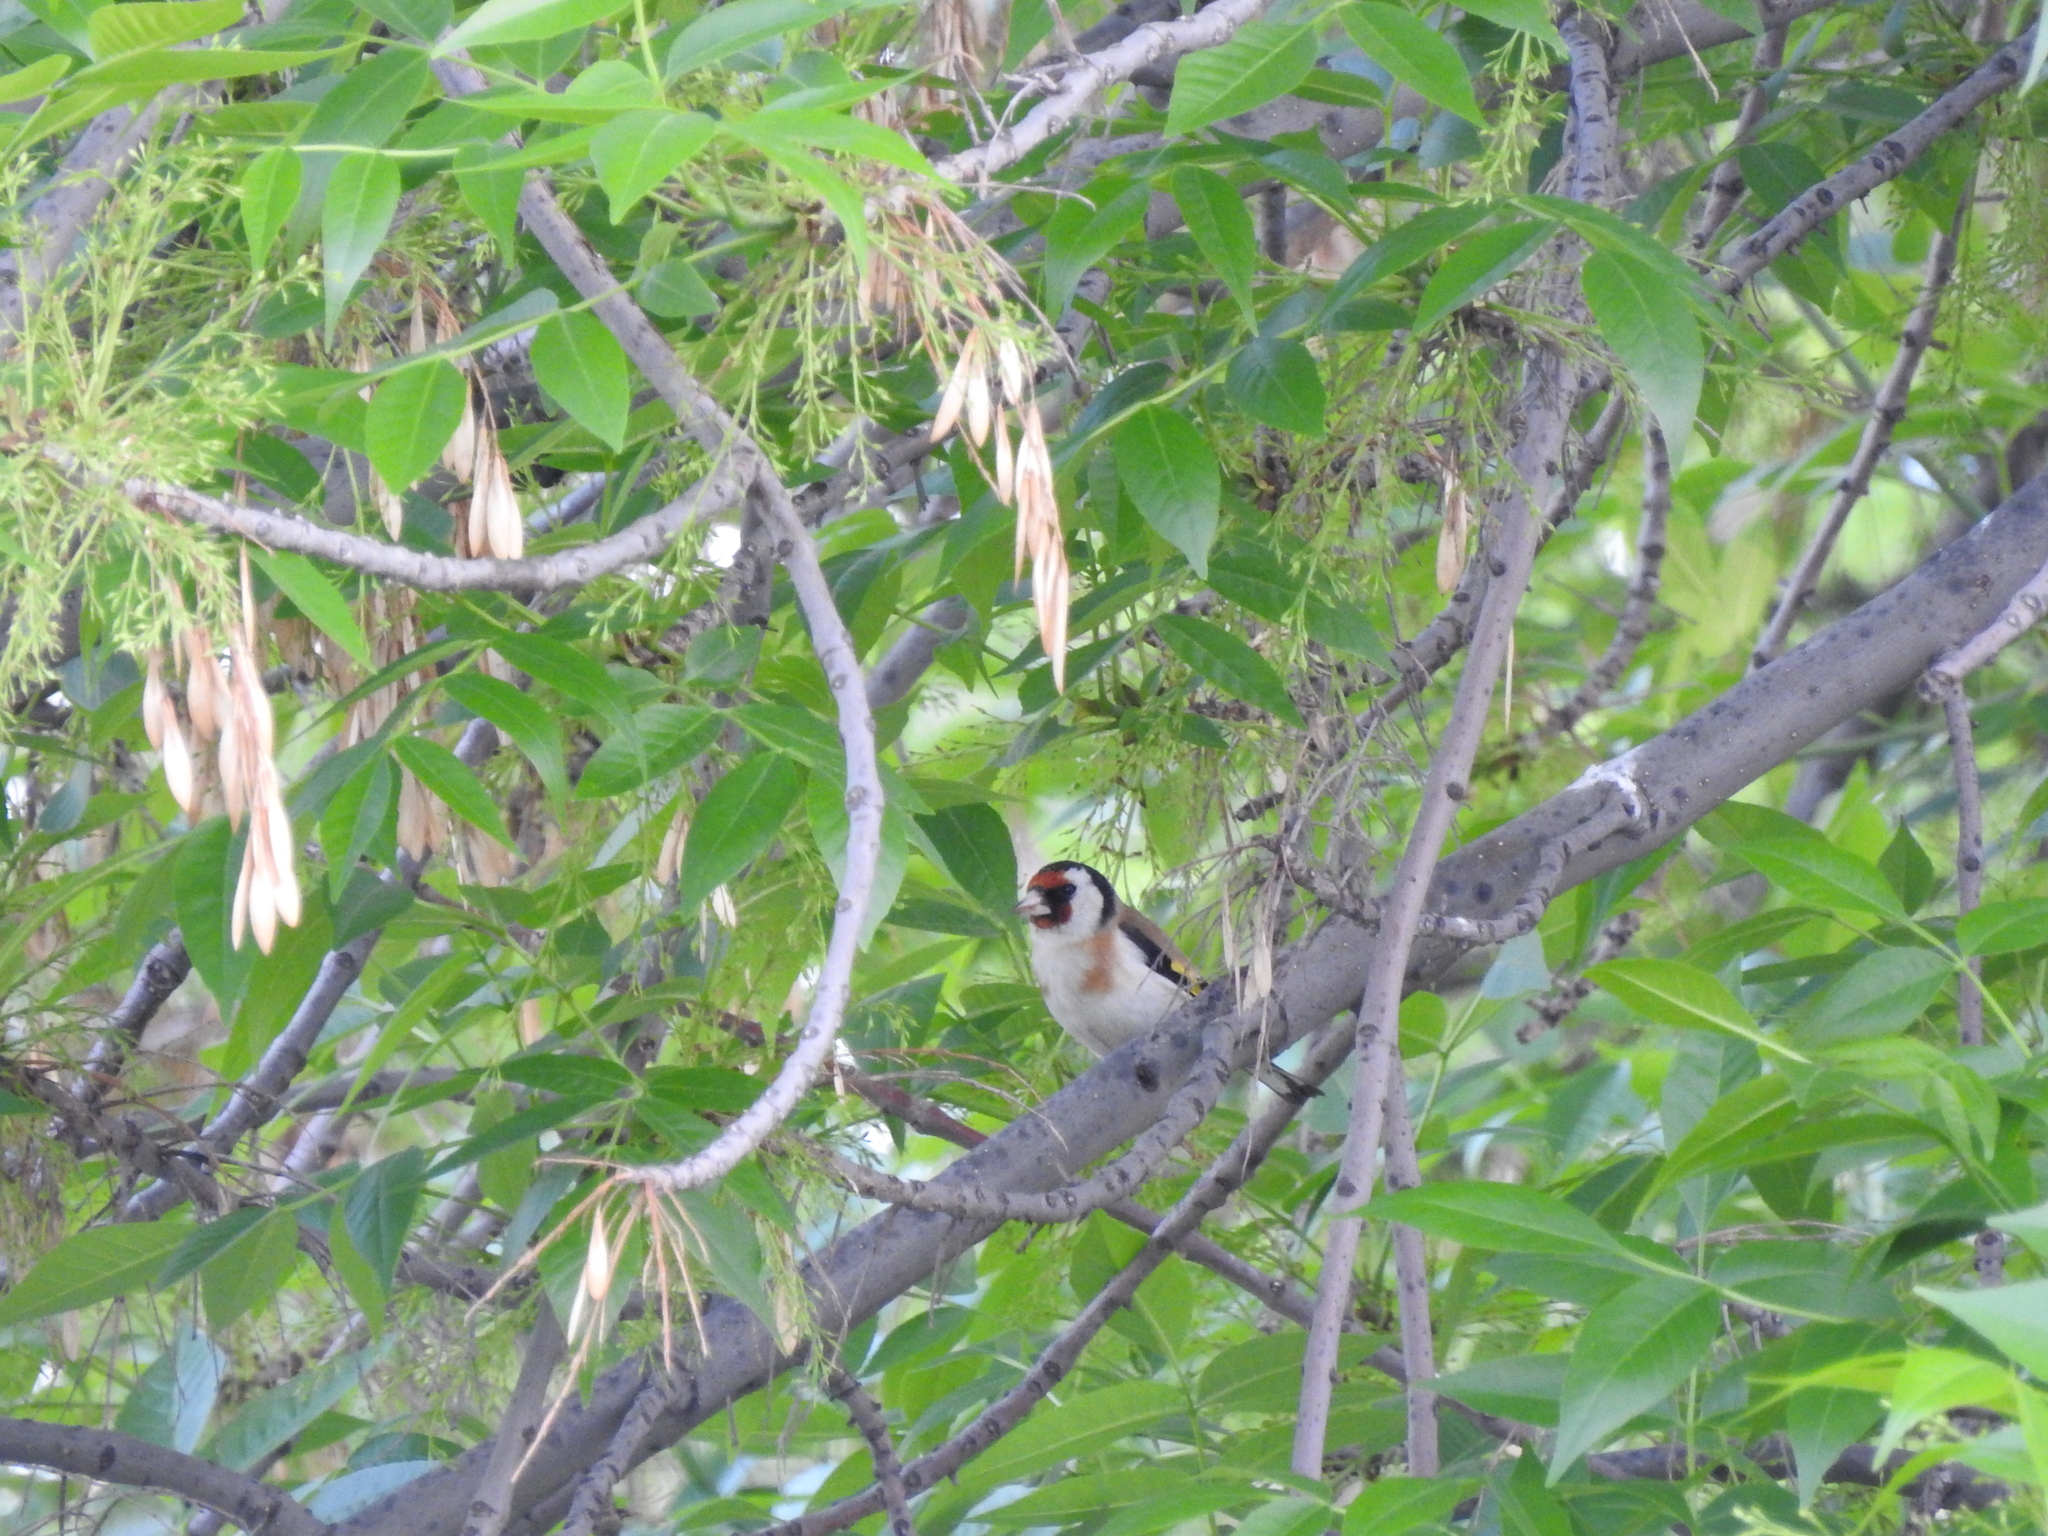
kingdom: Animalia
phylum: Chordata
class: Aves
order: Passeriformes
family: Fringillidae
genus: Carduelis
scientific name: Carduelis carduelis
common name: European goldfinch
